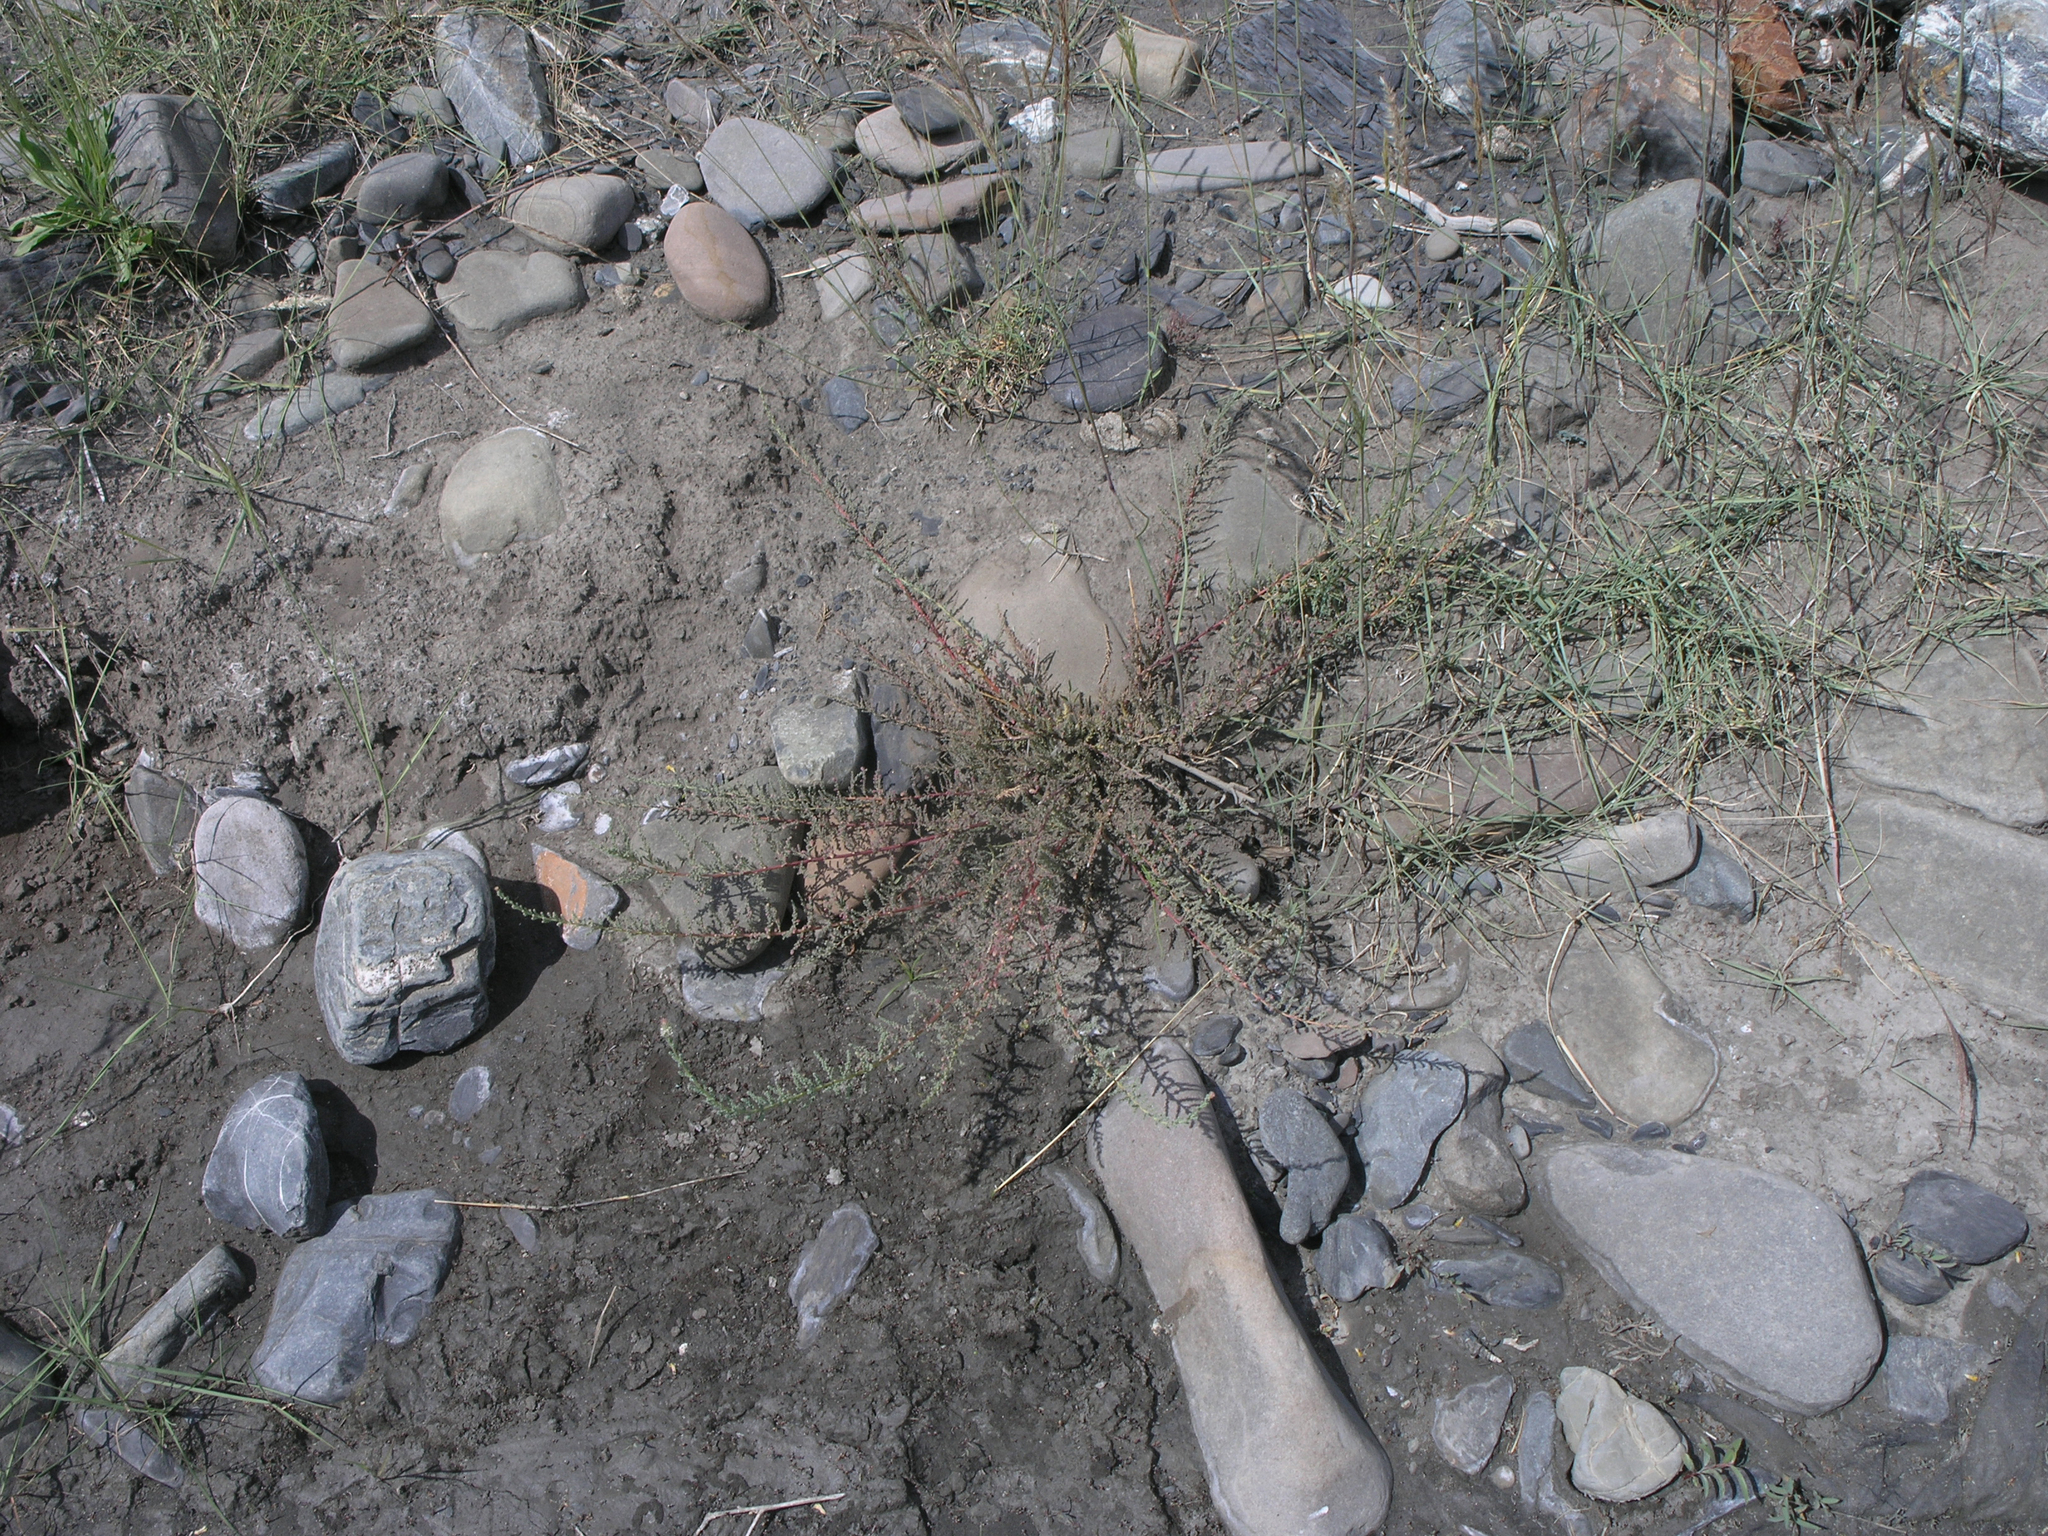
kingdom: Plantae
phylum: Tracheophyta
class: Magnoliopsida
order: Caryophyllales
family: Tamaricaceae
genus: Myricaria
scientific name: Myricaria bracteata
